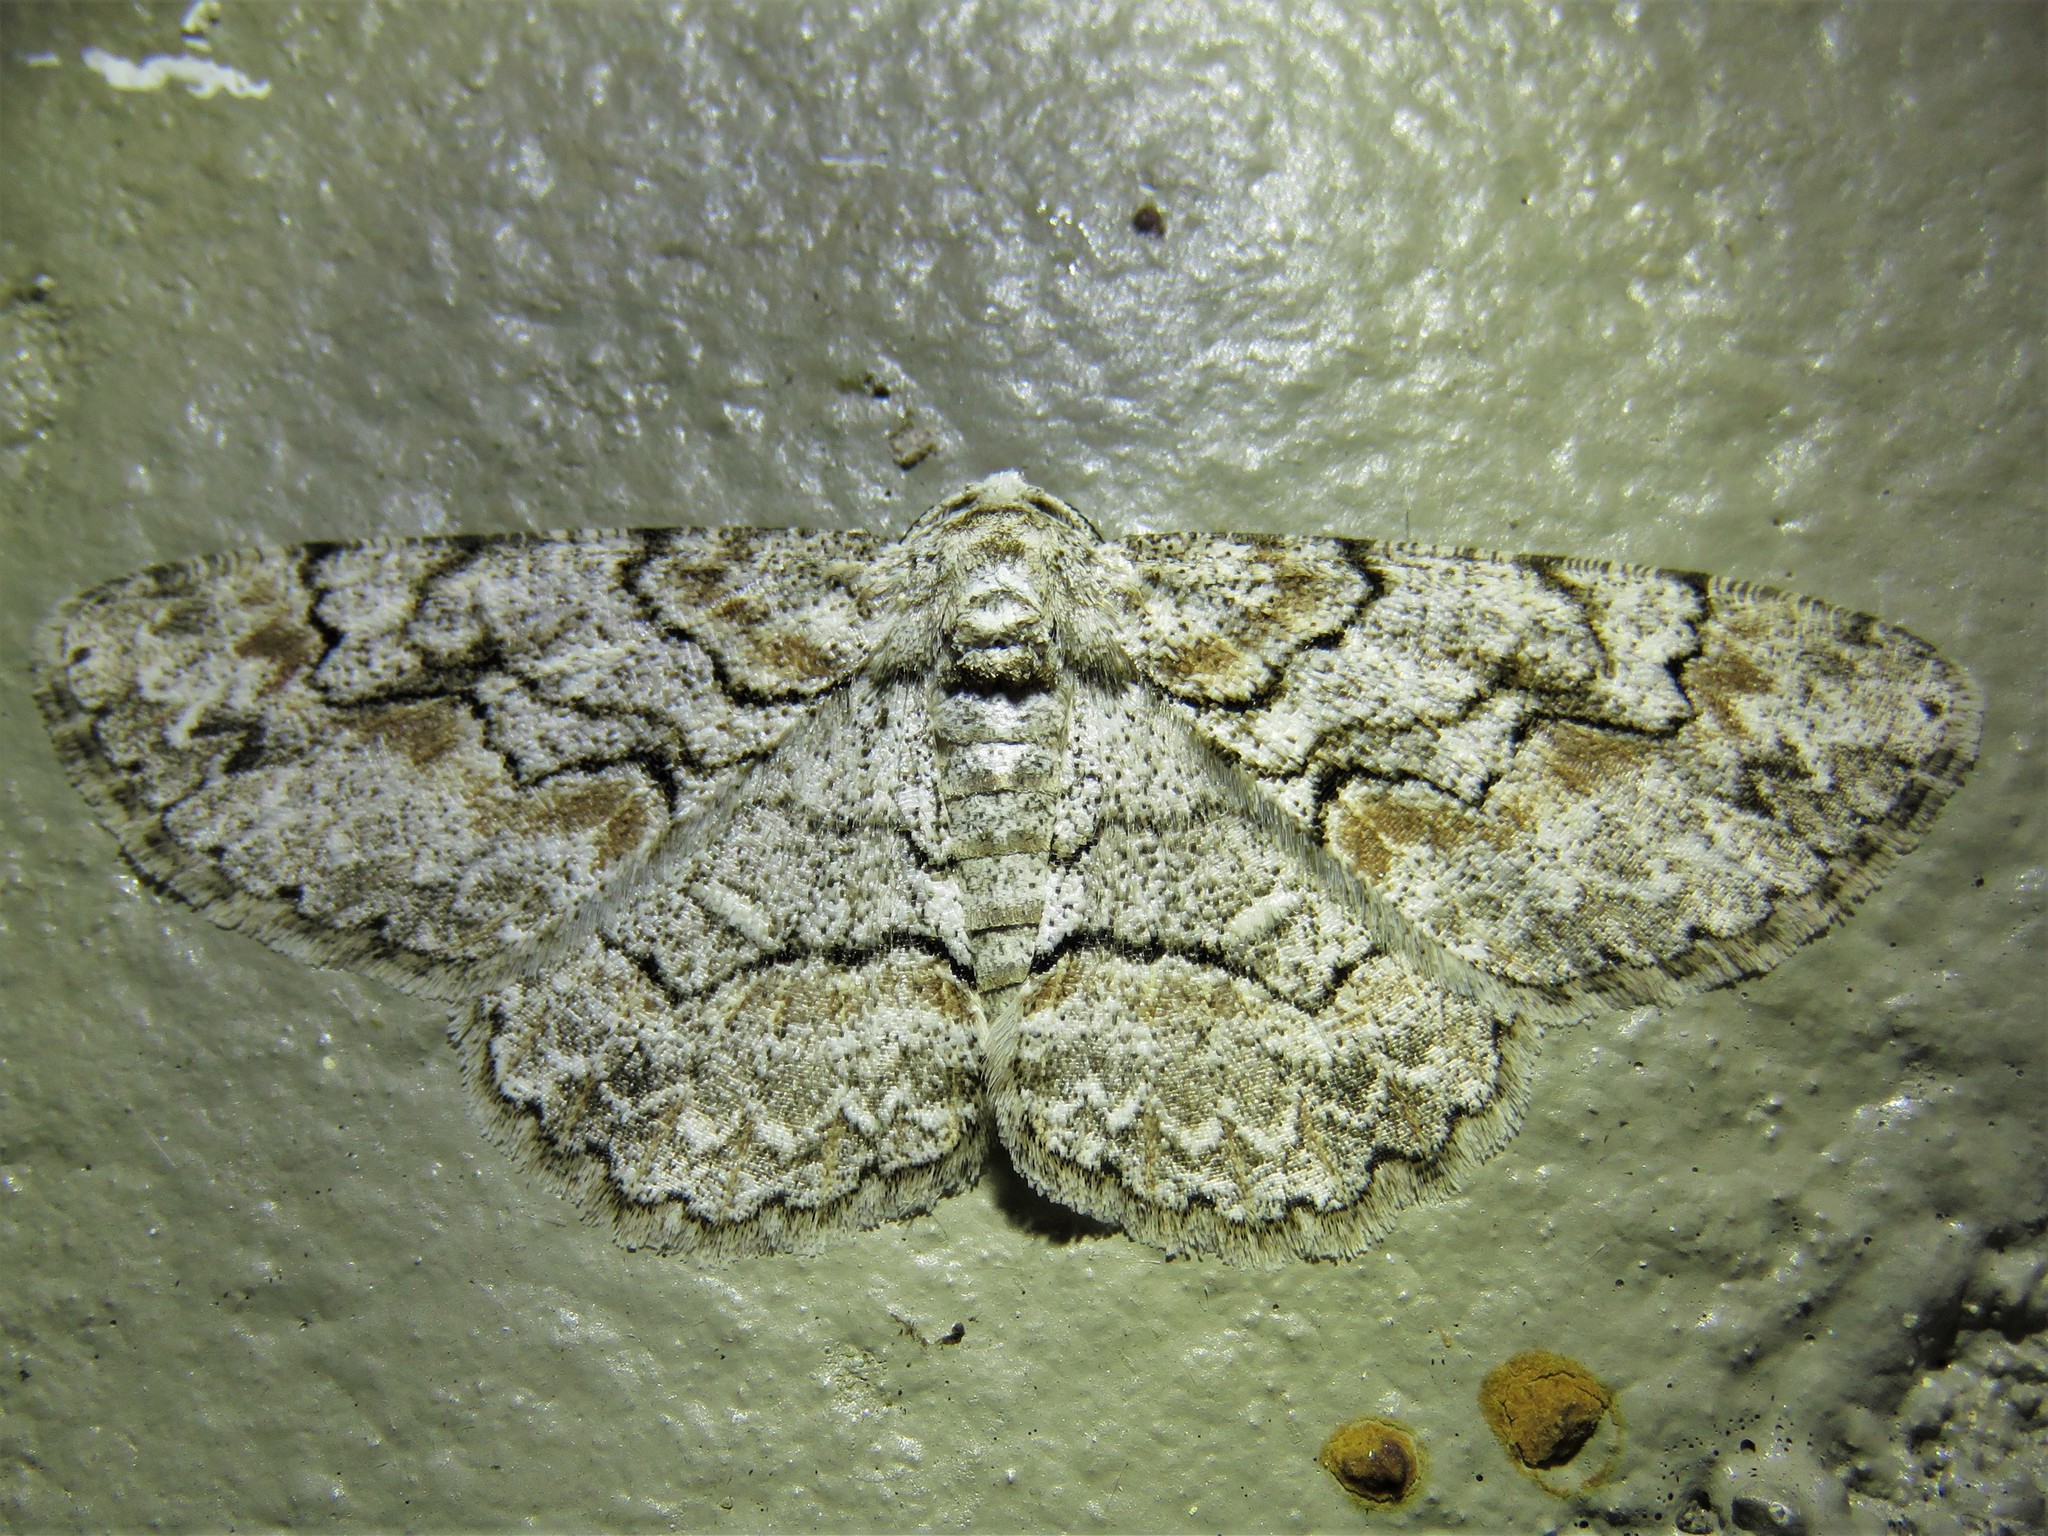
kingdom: Animalia
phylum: Arthropoda
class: Insecta
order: Lepidoptera
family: Geometridae
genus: Iridopsis
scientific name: Iridopsis defectaria
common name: Brown-shaded gray
